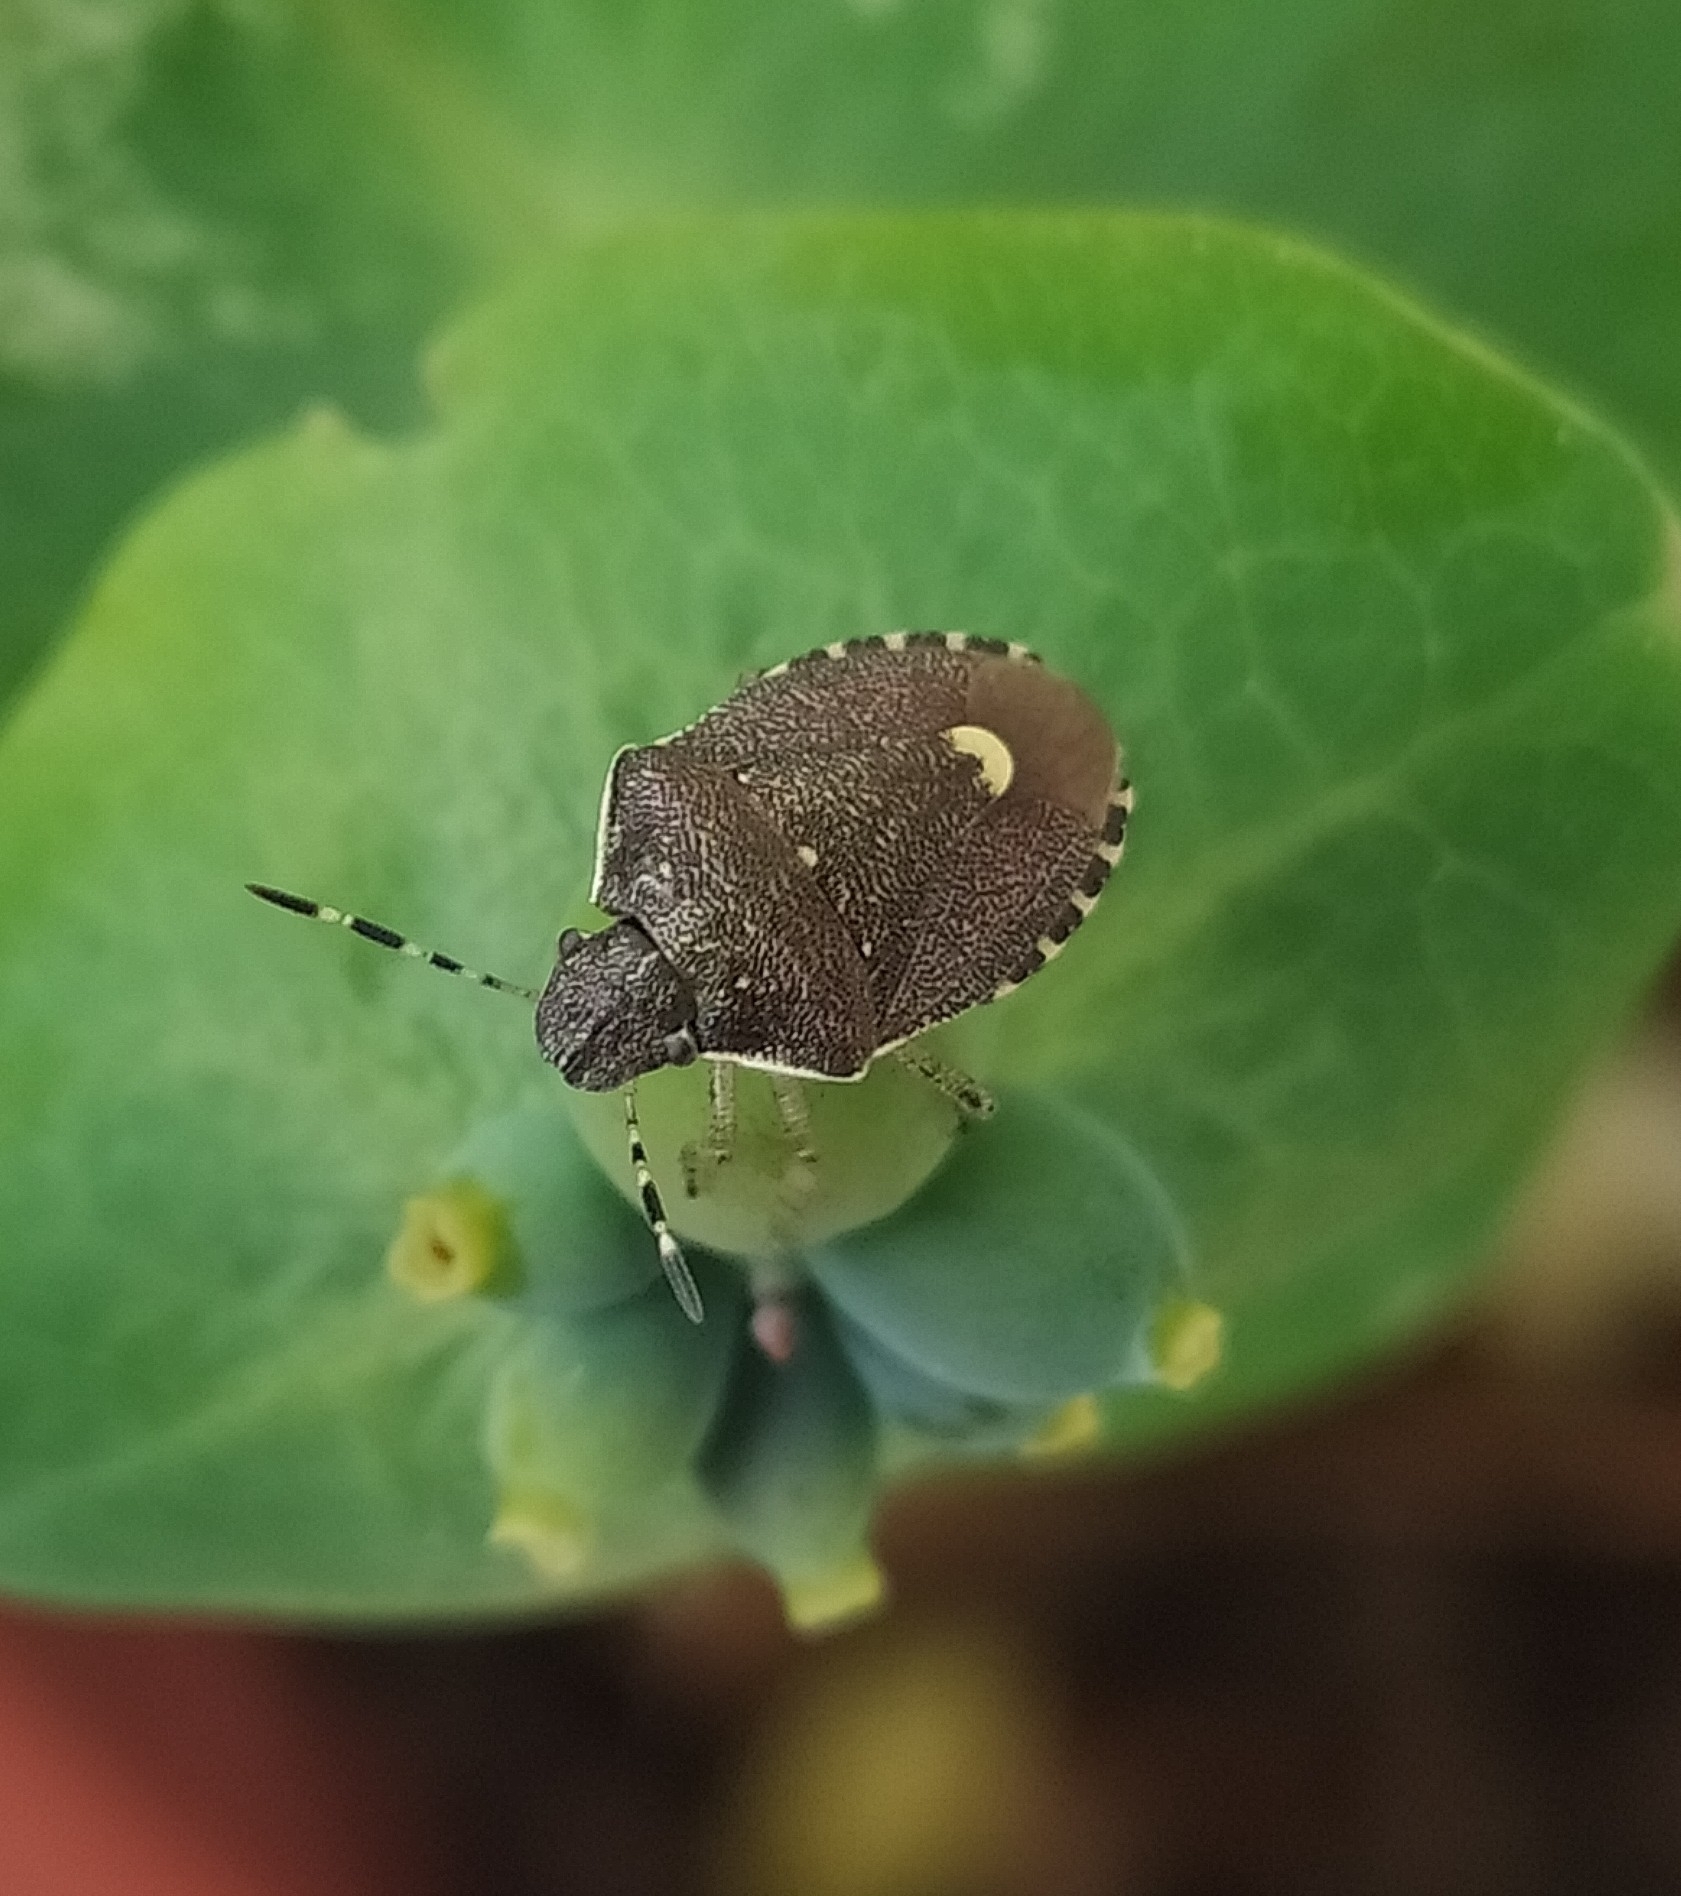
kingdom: Animalia
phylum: Arthropoda
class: Insecta
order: Hemiptera
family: Pentatomidae
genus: Holcostethus
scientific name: Holcostethus sphacelatus
